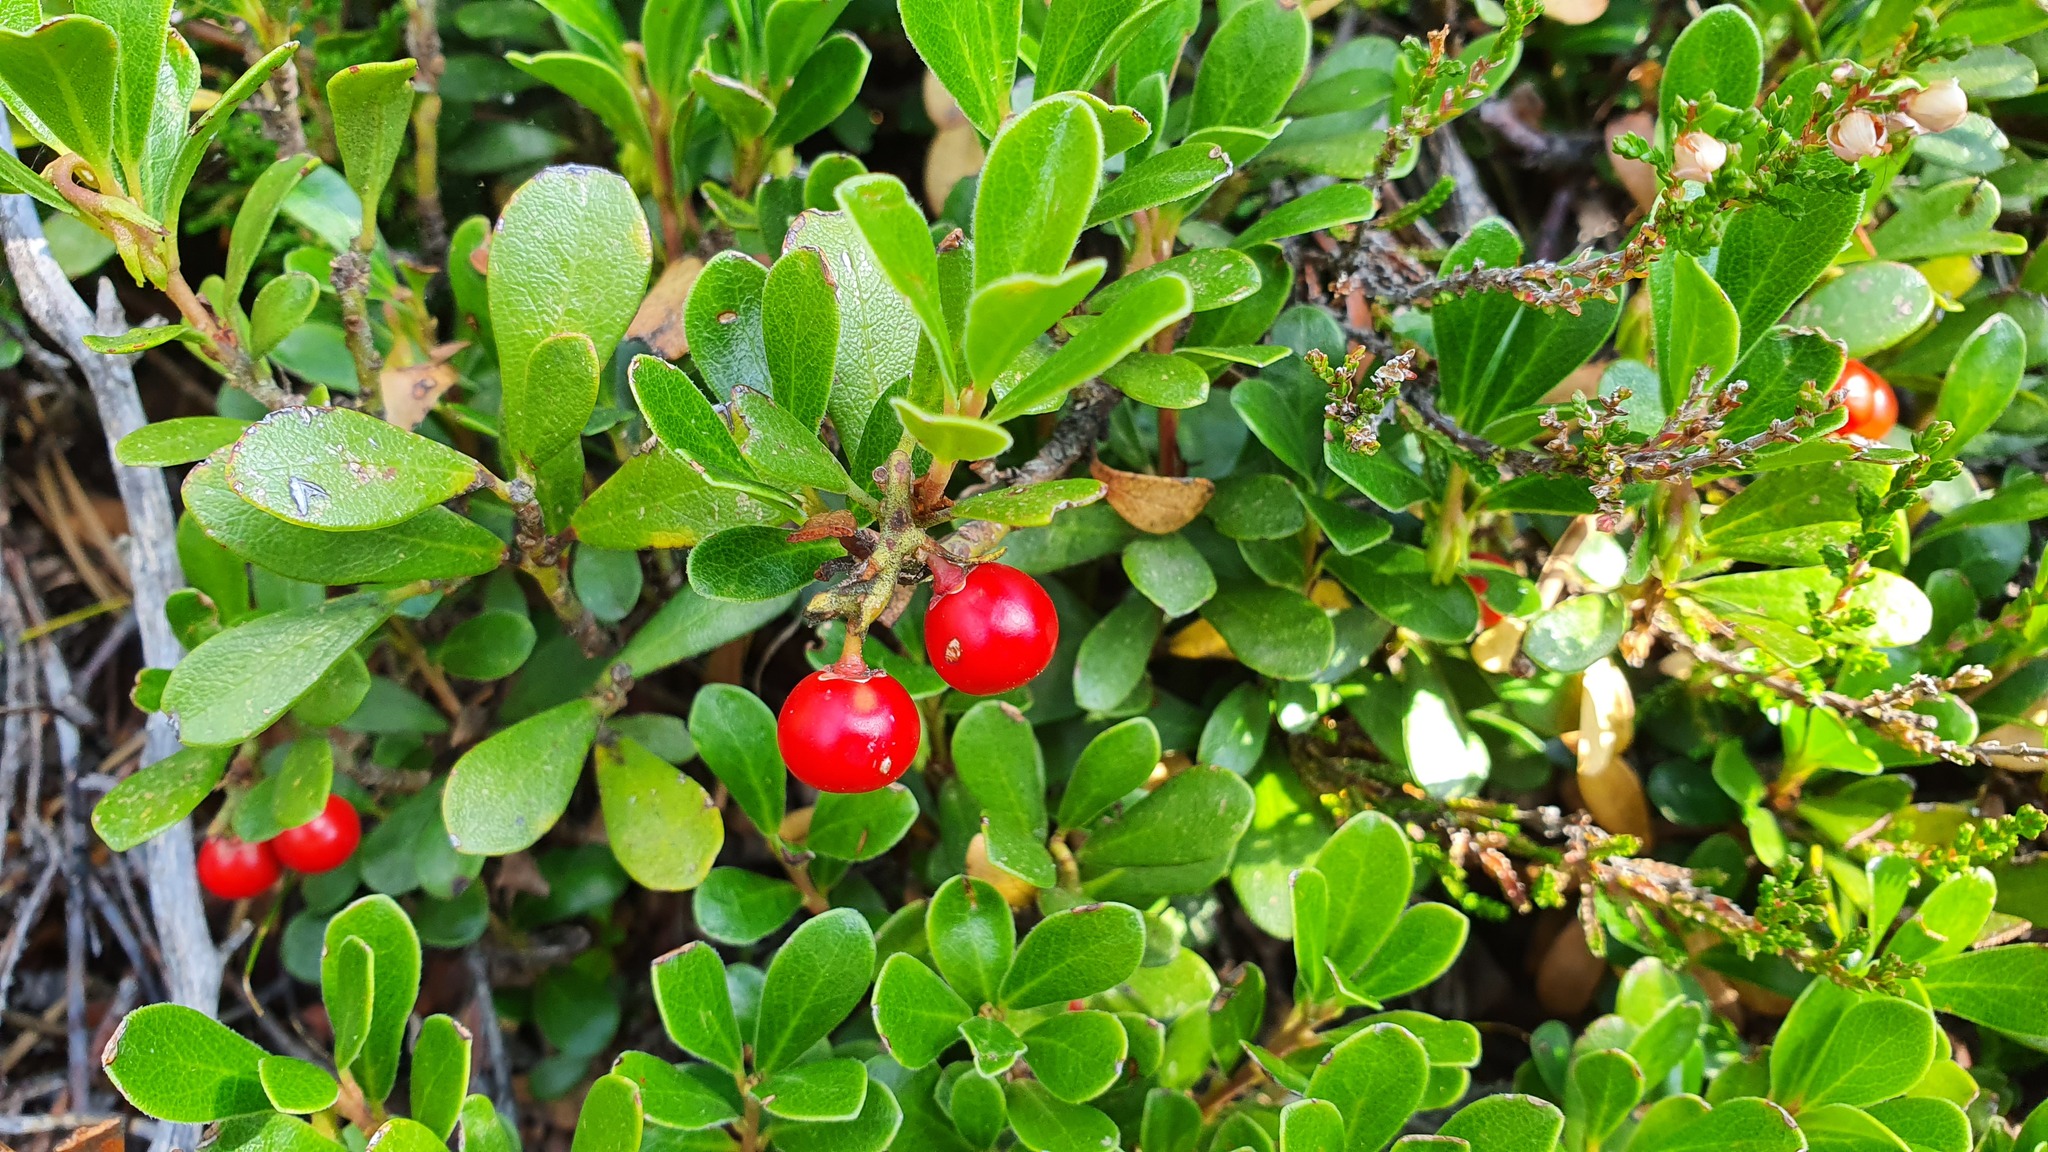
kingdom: Plantae
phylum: Tracheophyta
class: Magnoliopsida
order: Ericales
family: Ericaceae
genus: Arctostaphylos
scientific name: Arctostaphylos uva-ursi
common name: Bearberry
